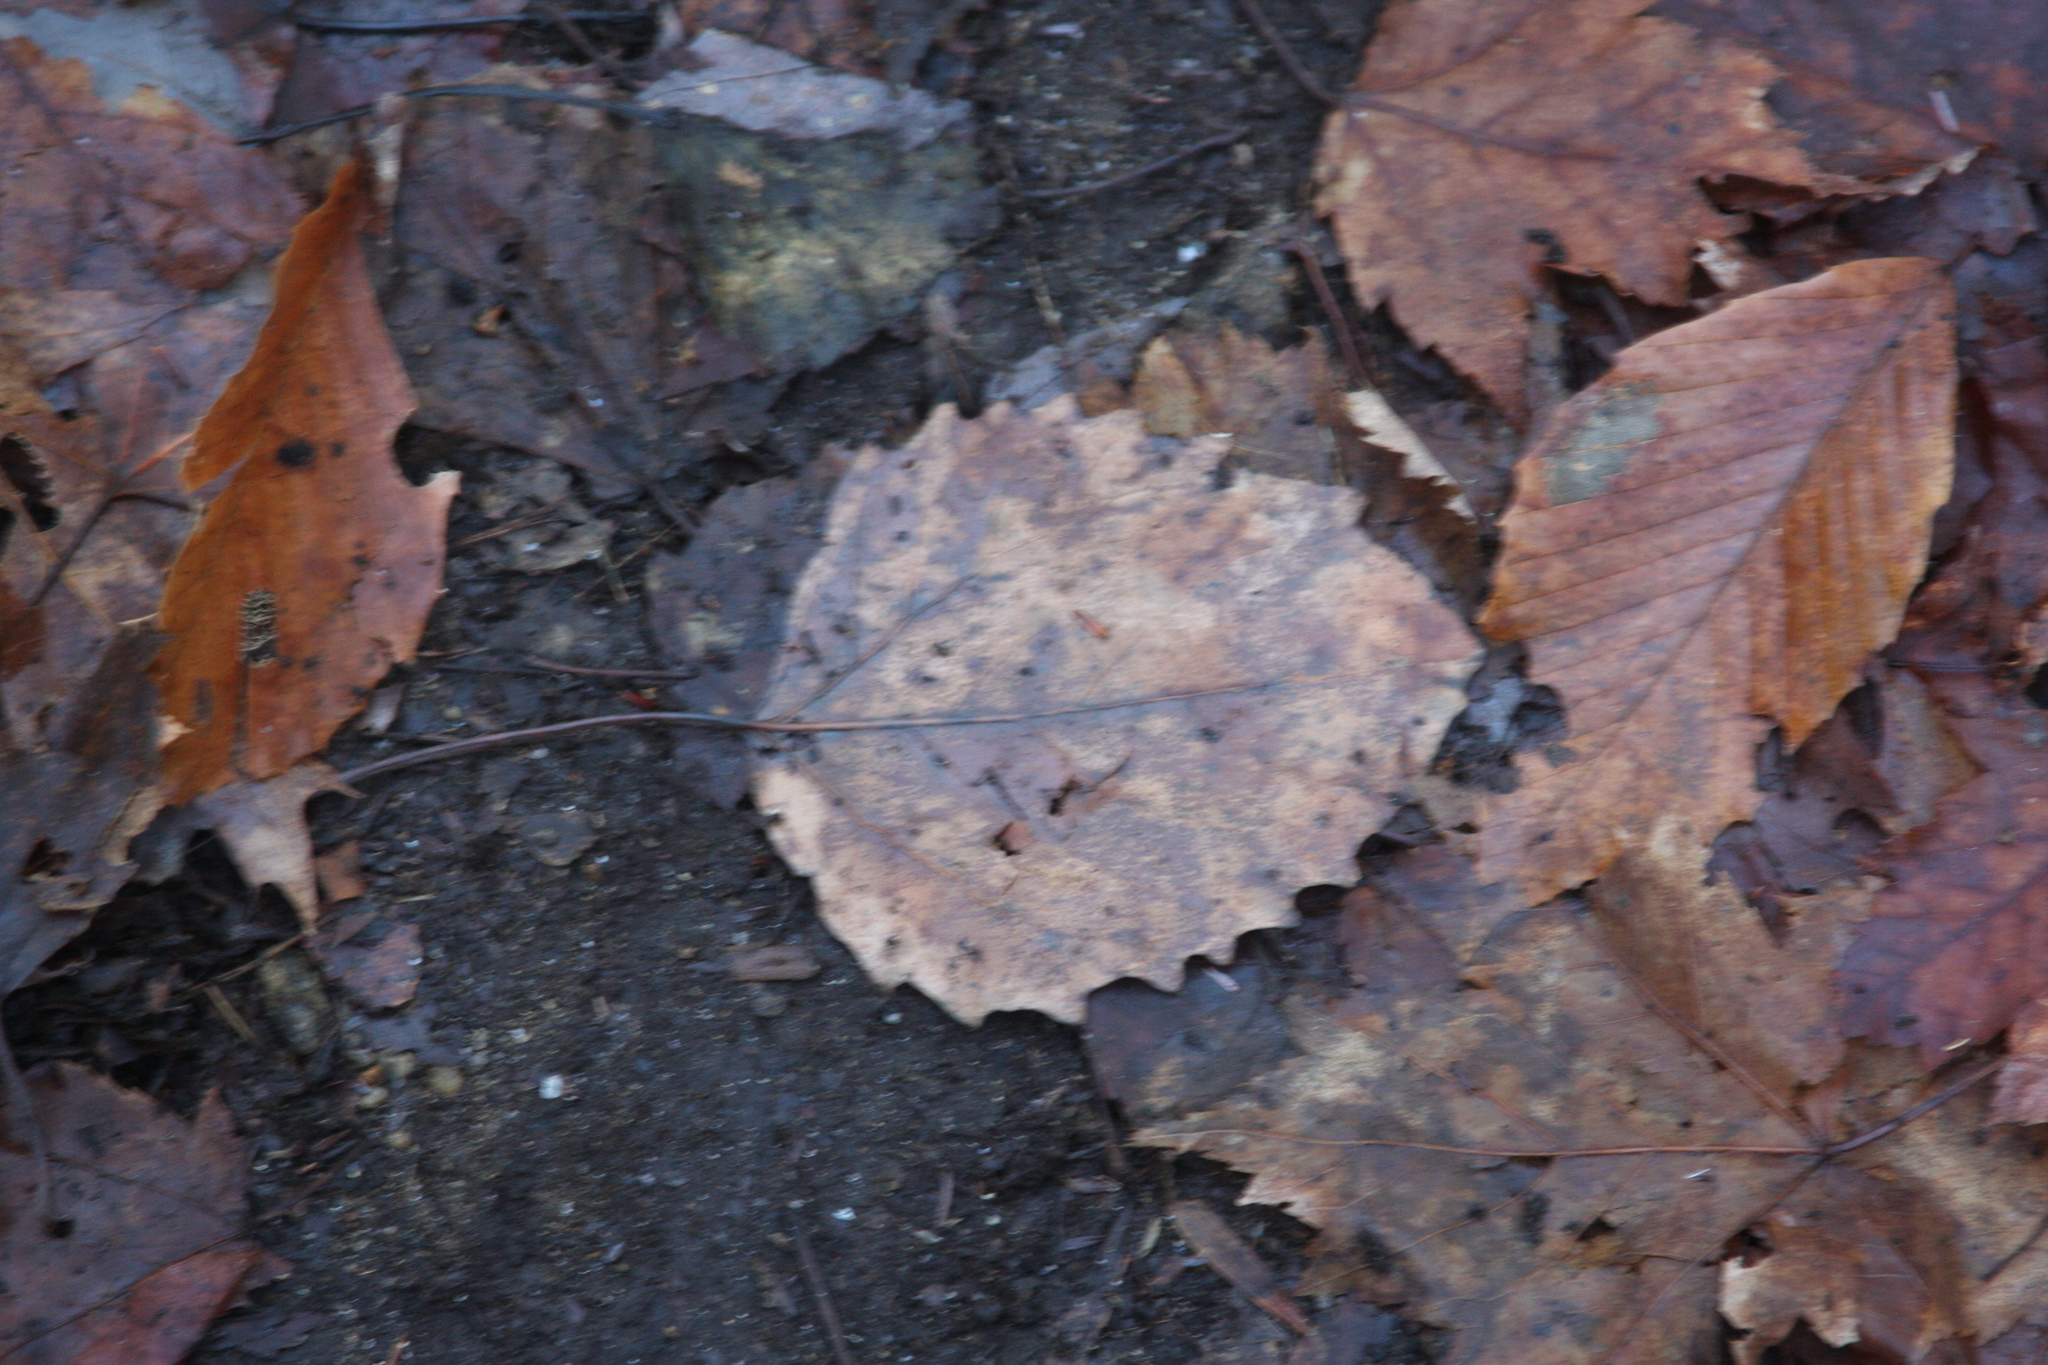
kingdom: Plantae
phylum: Tracheophyta
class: Magnoliopsida
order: Malpighiales
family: Salicaceae
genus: Populus
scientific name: Populus grandidentata
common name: Bigtooth aspen
